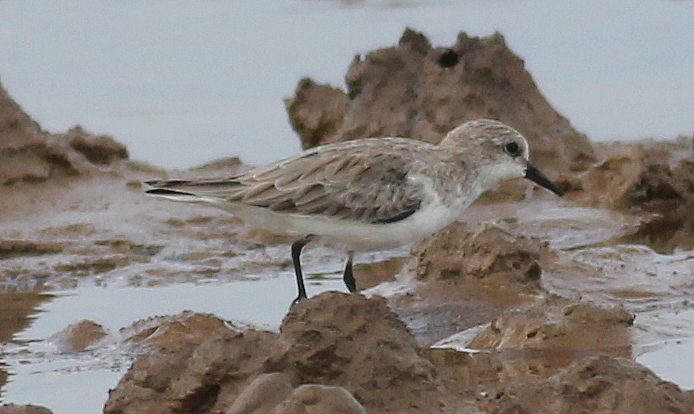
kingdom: Animalia
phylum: Chordata
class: Aves
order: Charadriiformes
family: Scolopacidae
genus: Calidris
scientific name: Calidris ruficollis
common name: Red-necked stint
